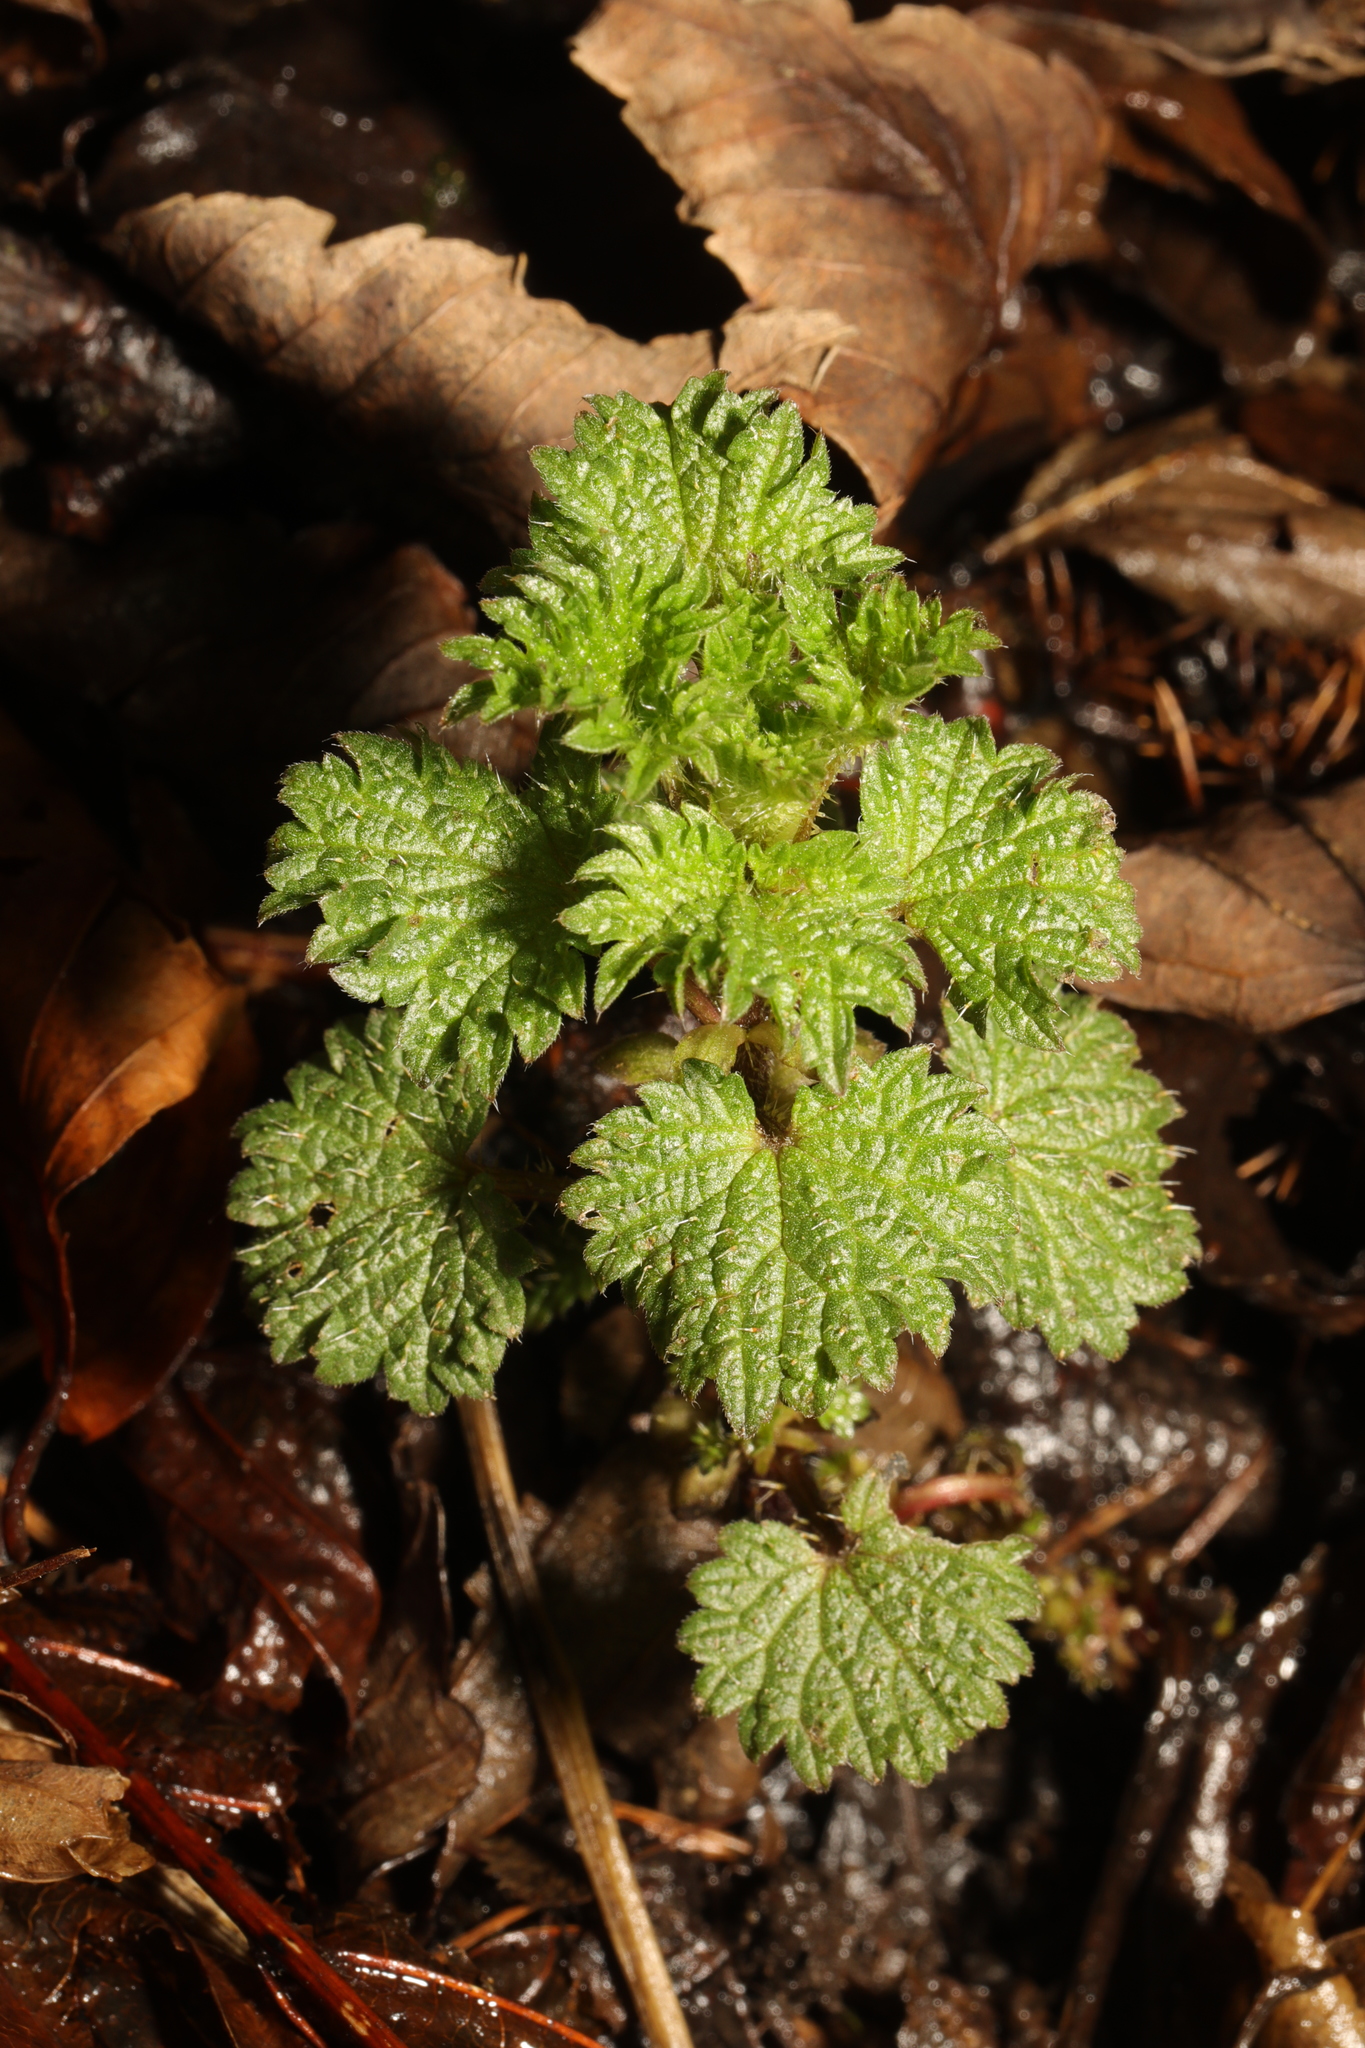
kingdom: Plantae
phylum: Tracheophyta
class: Magnoliopsida
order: Rosales
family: Urticaceae
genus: Urtica
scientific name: Urtica dioica
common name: Common nettle
